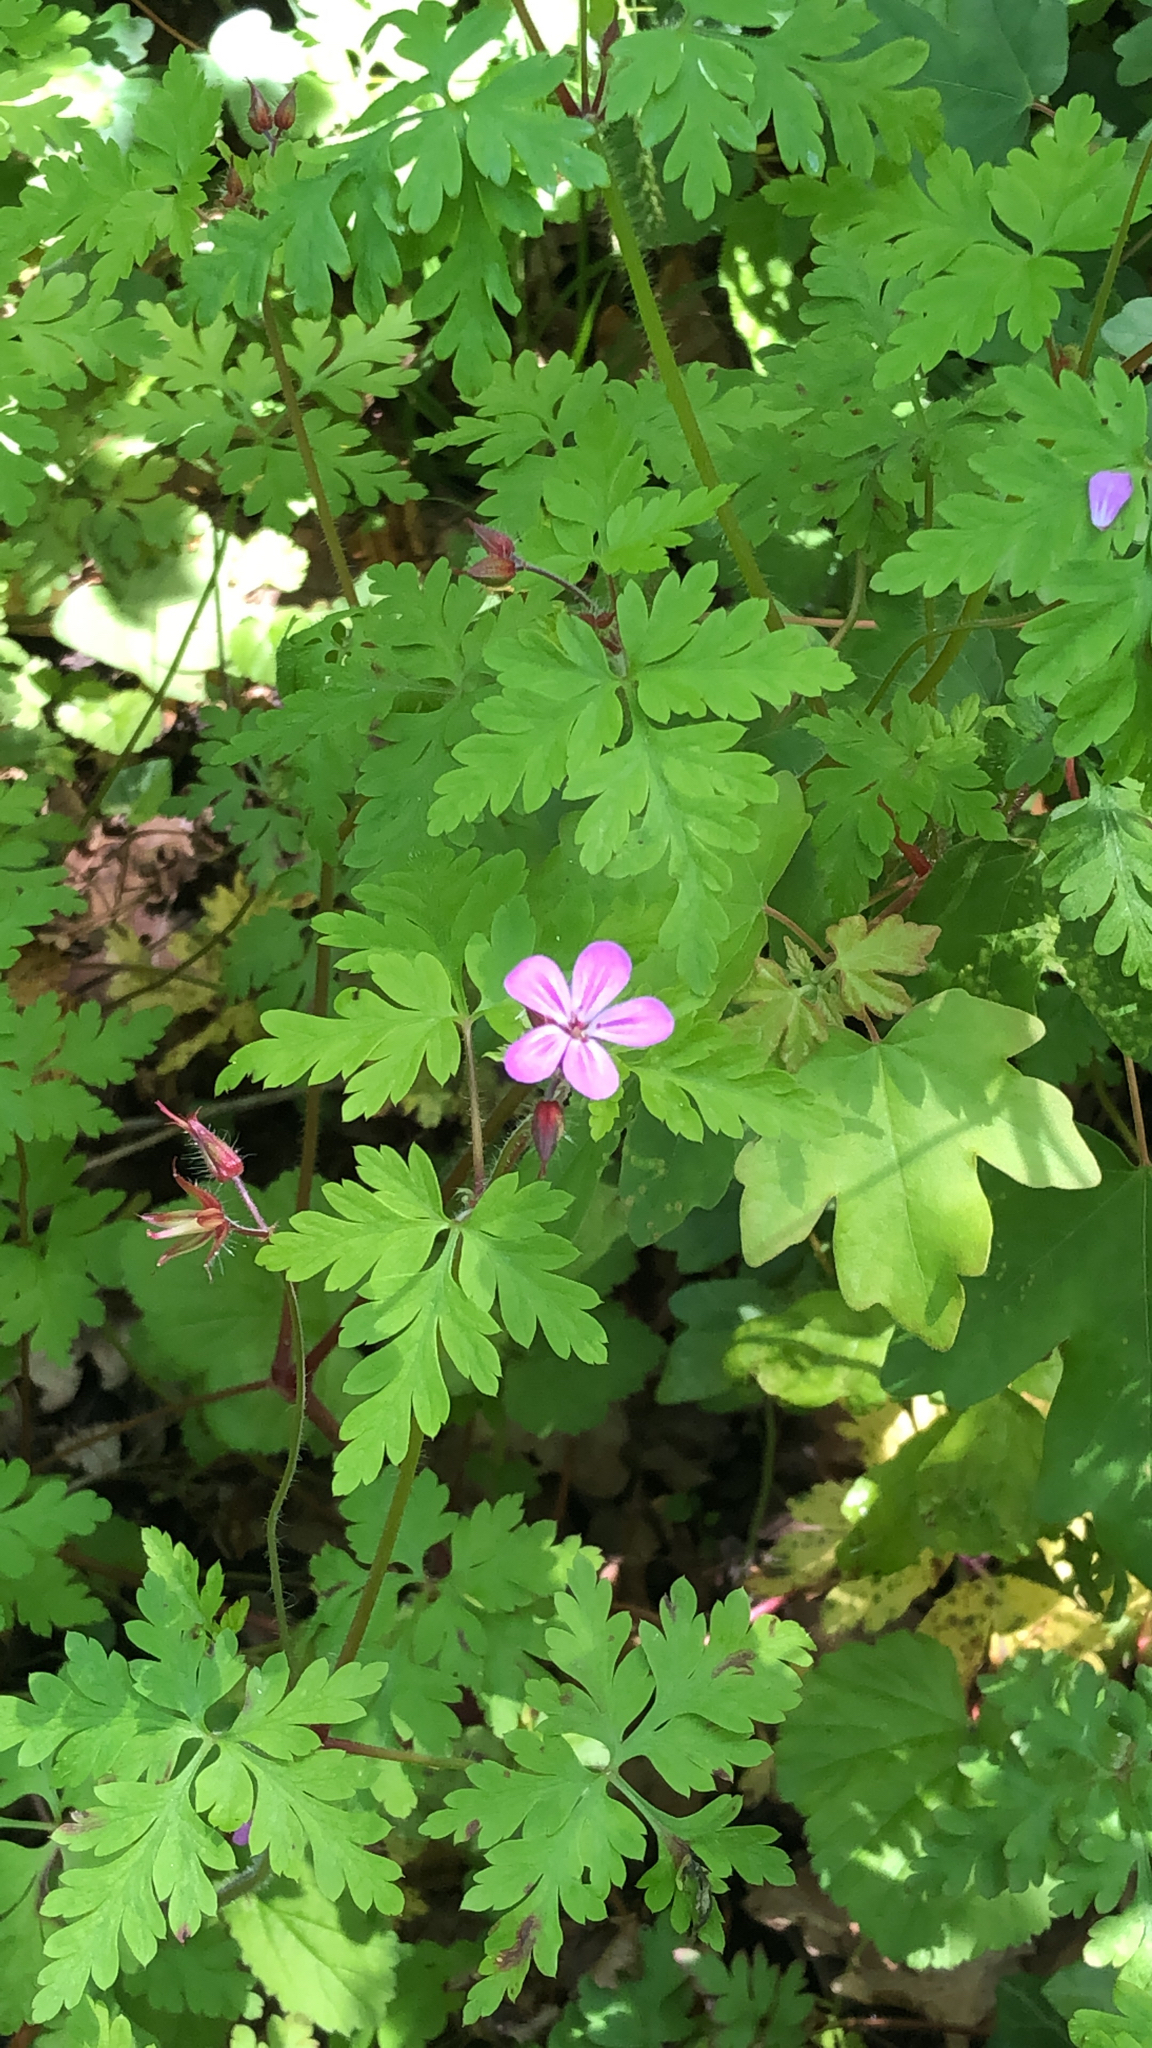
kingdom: Plantae
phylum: Tracheophyta
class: Magnoliopsida
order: Geraniales
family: Geraniaceae
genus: Geranium
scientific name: Geranium robertianum
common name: Herb-robert
